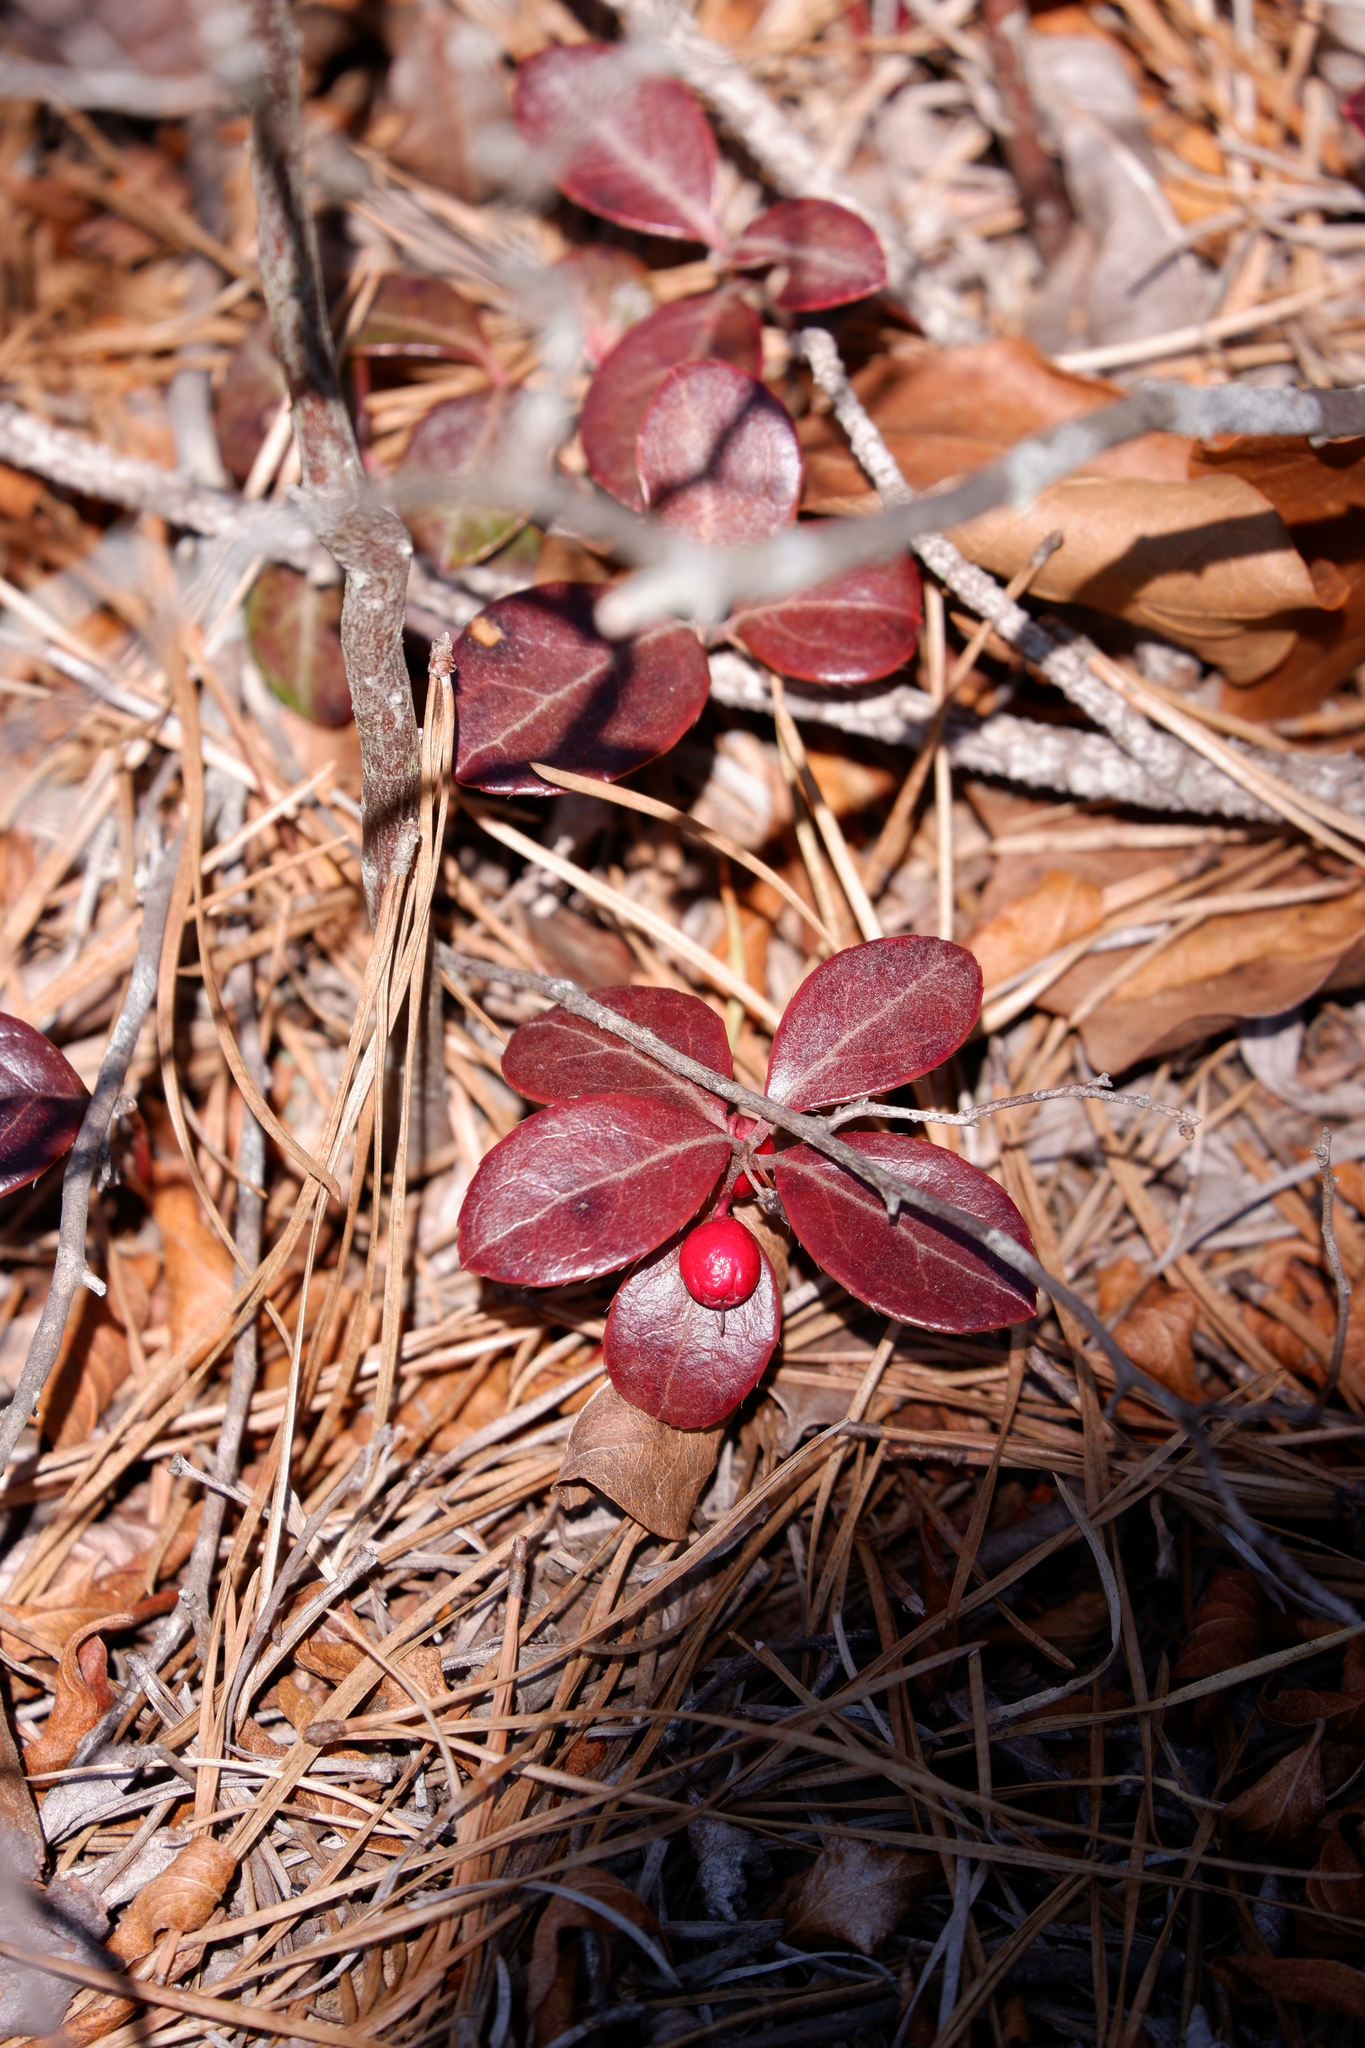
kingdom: Plantae
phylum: Tracheophyta
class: Magnoliopsida
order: Ericales
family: Ericaceae
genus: Gaultheria
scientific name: Gaultheria procumbens
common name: Checkerberry
